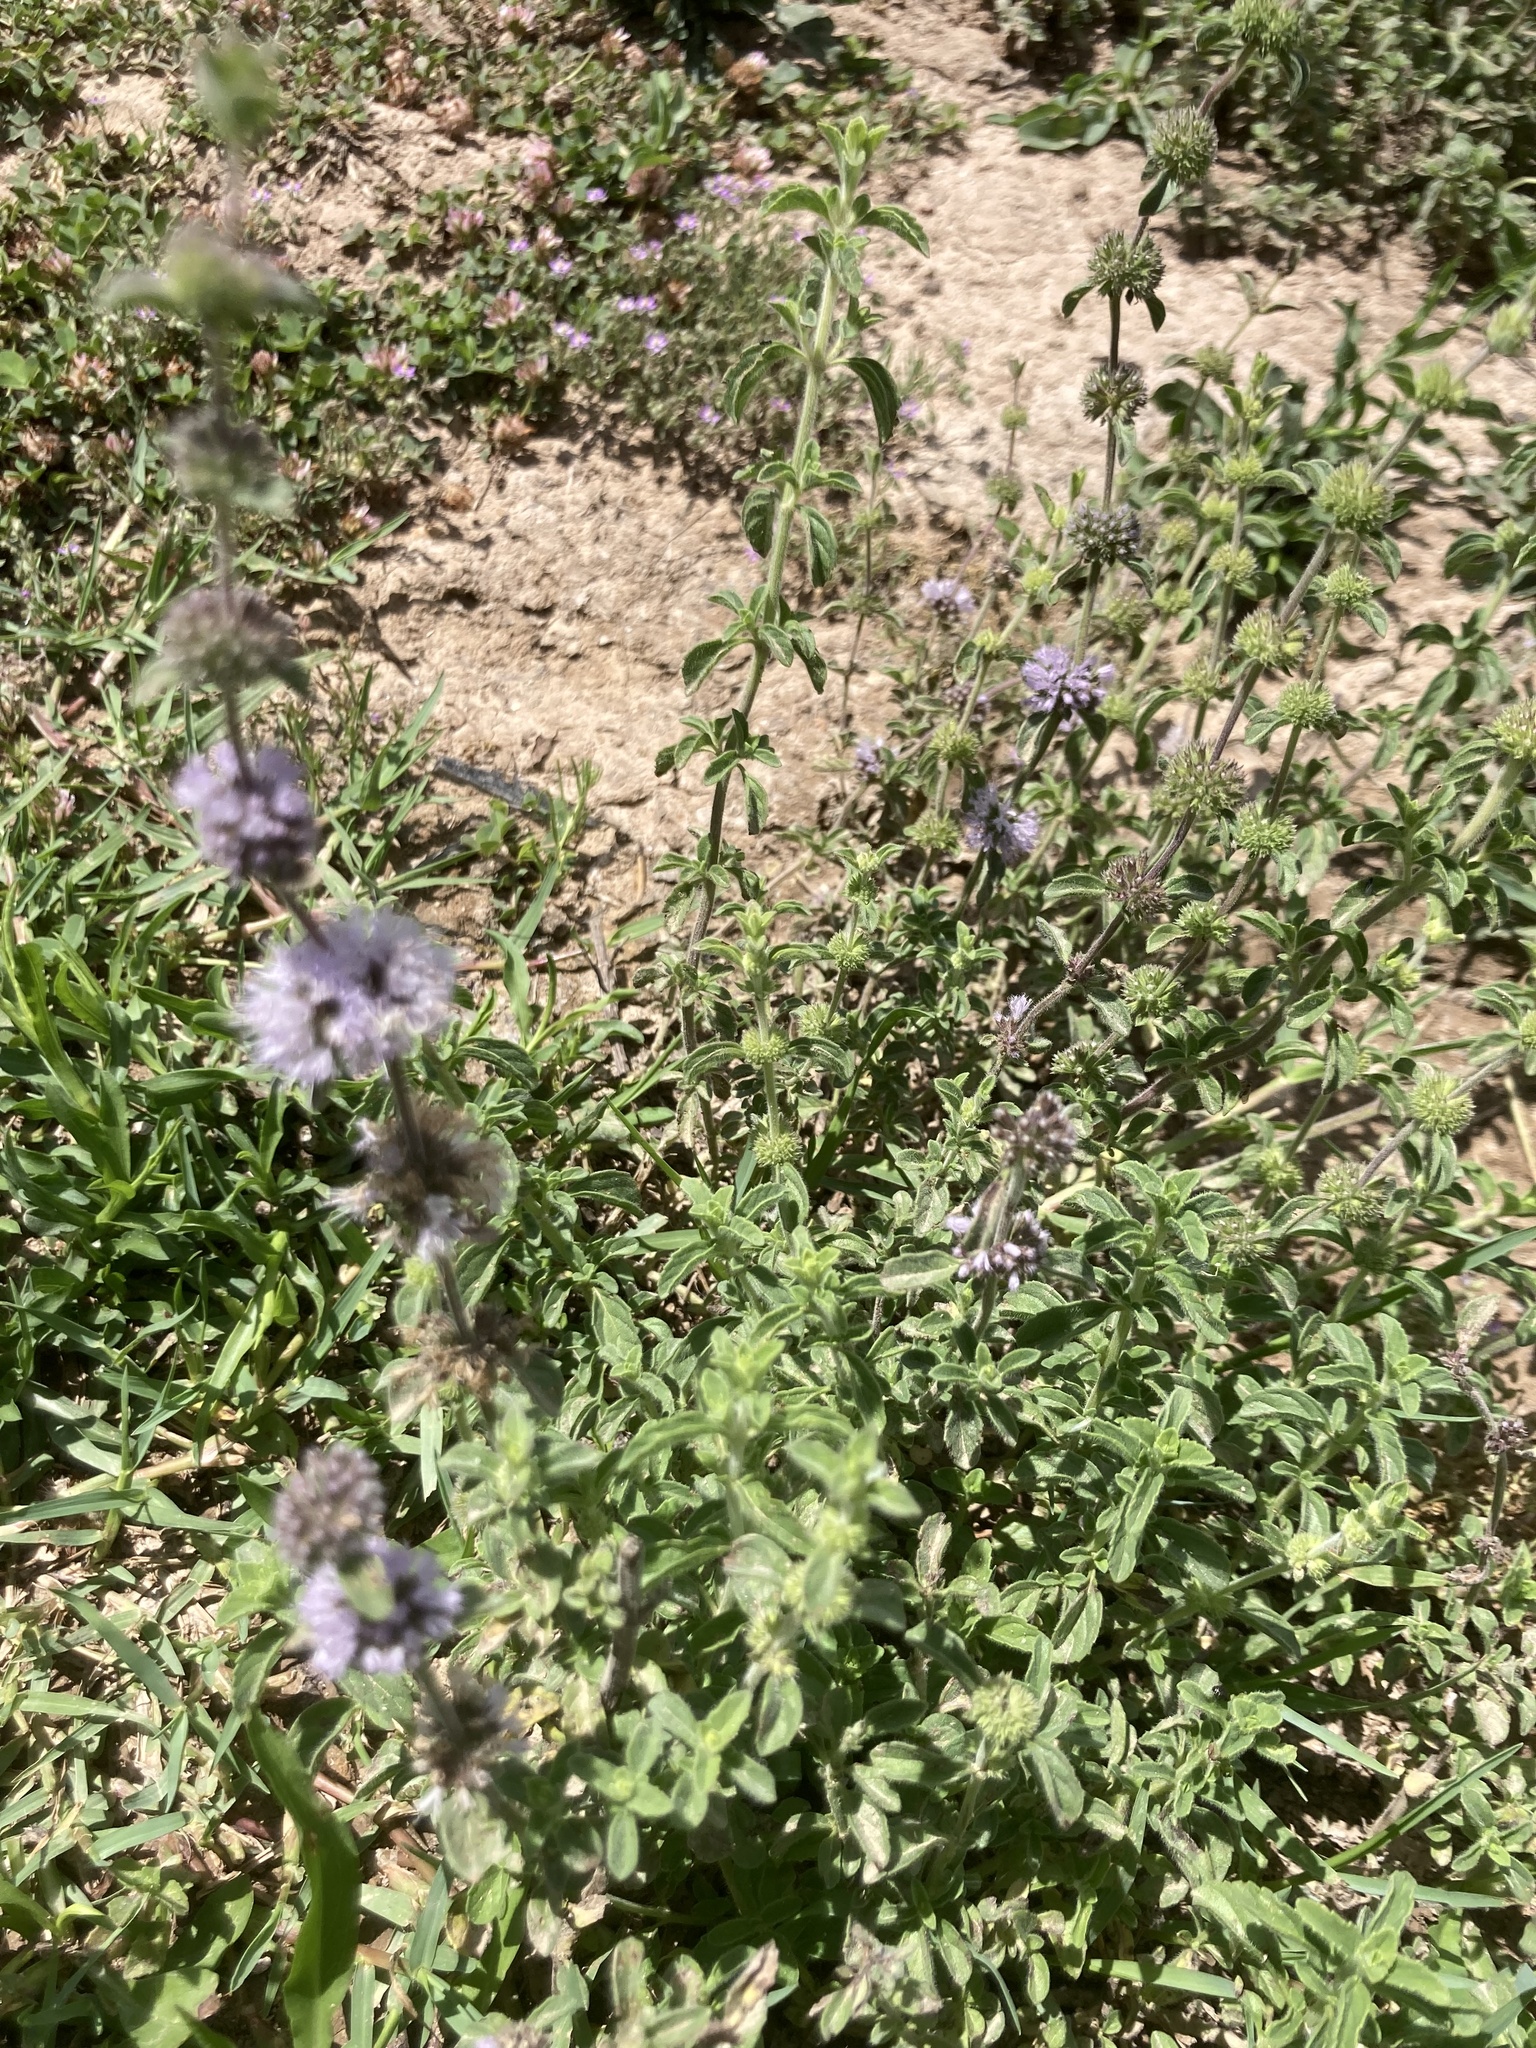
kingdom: Plantae
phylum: Tracheophyta
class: Magnoliopsida
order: Lamiales
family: Lamiaceae
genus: Mentha
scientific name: Mentha pulegium
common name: Pennyroyal
